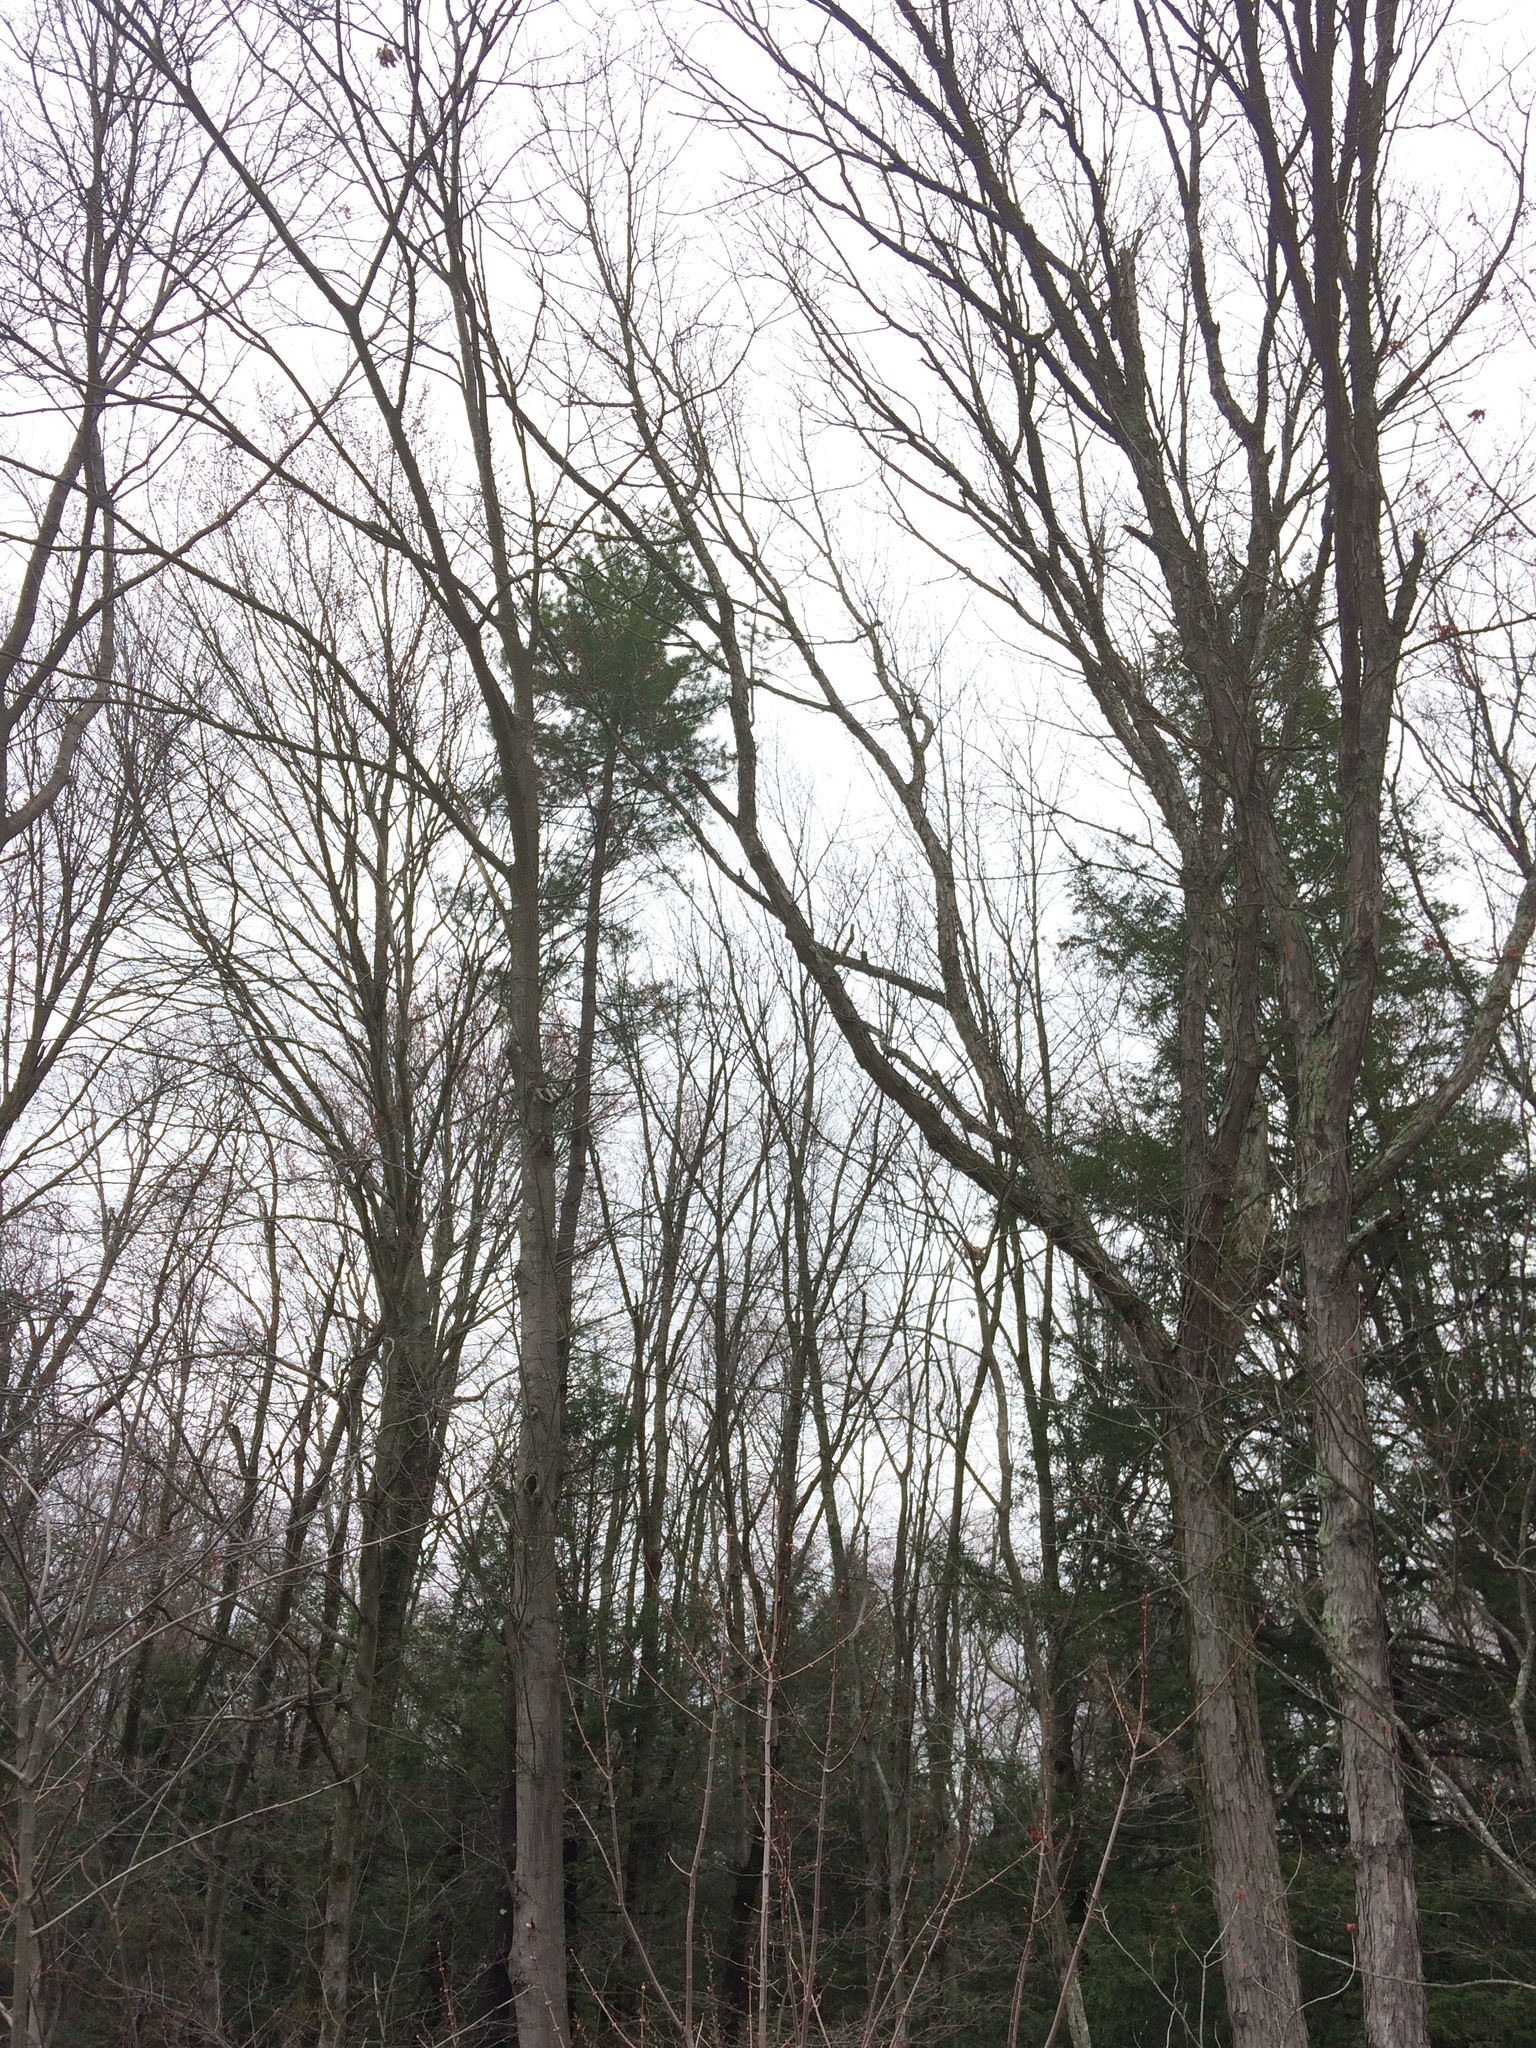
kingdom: Plantae
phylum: Tracheophyta
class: Pinopsida
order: Pinales
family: Pinaceae
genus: Pinus
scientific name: Pinus strobus
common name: Weymouth pine
